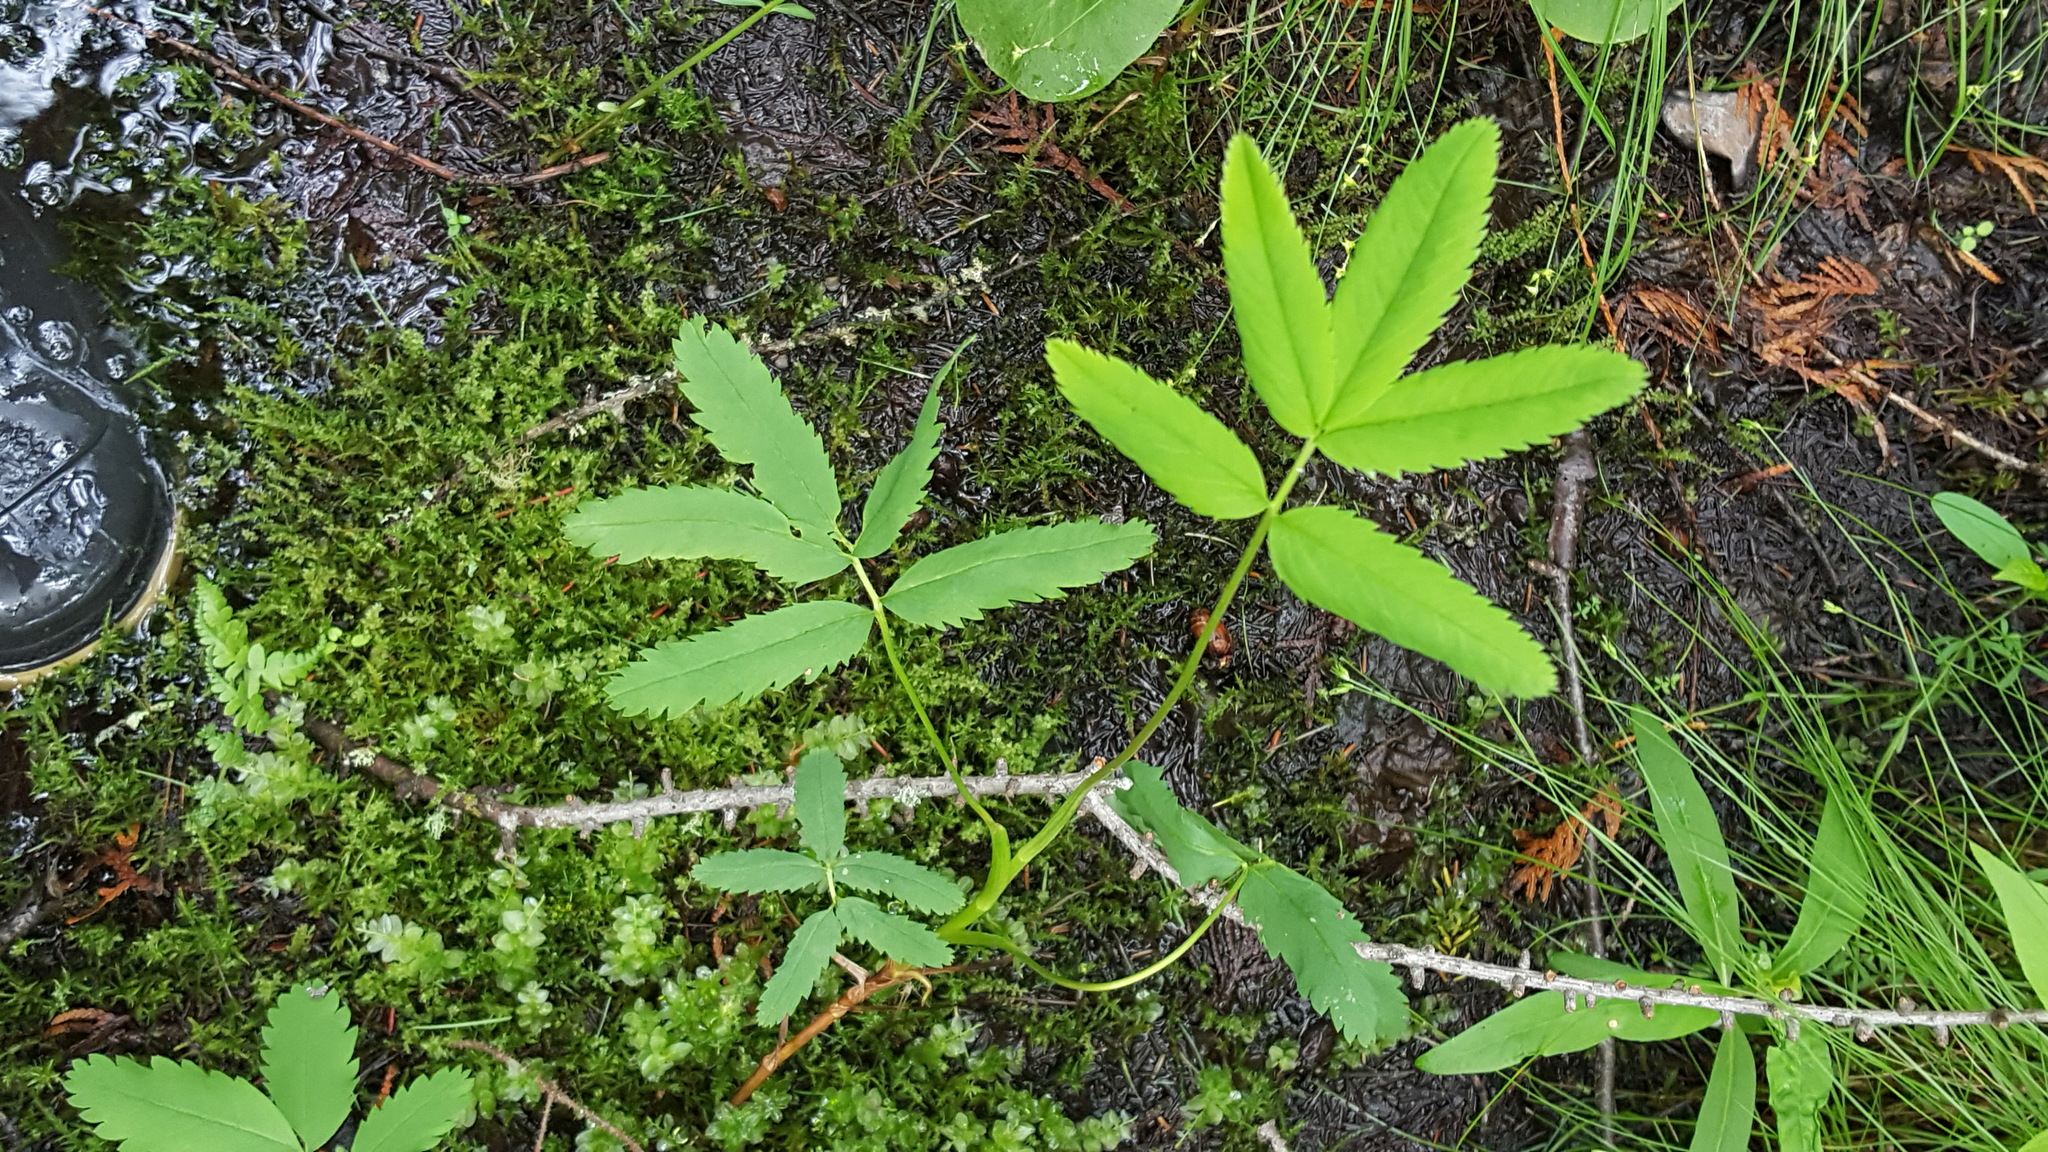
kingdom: Plantae
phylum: Tracheophyta
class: Magnoliopsida
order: Rosales
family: Rosaceae
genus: Comarum
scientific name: Comarum palustre
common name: Marsh cinquefoil
